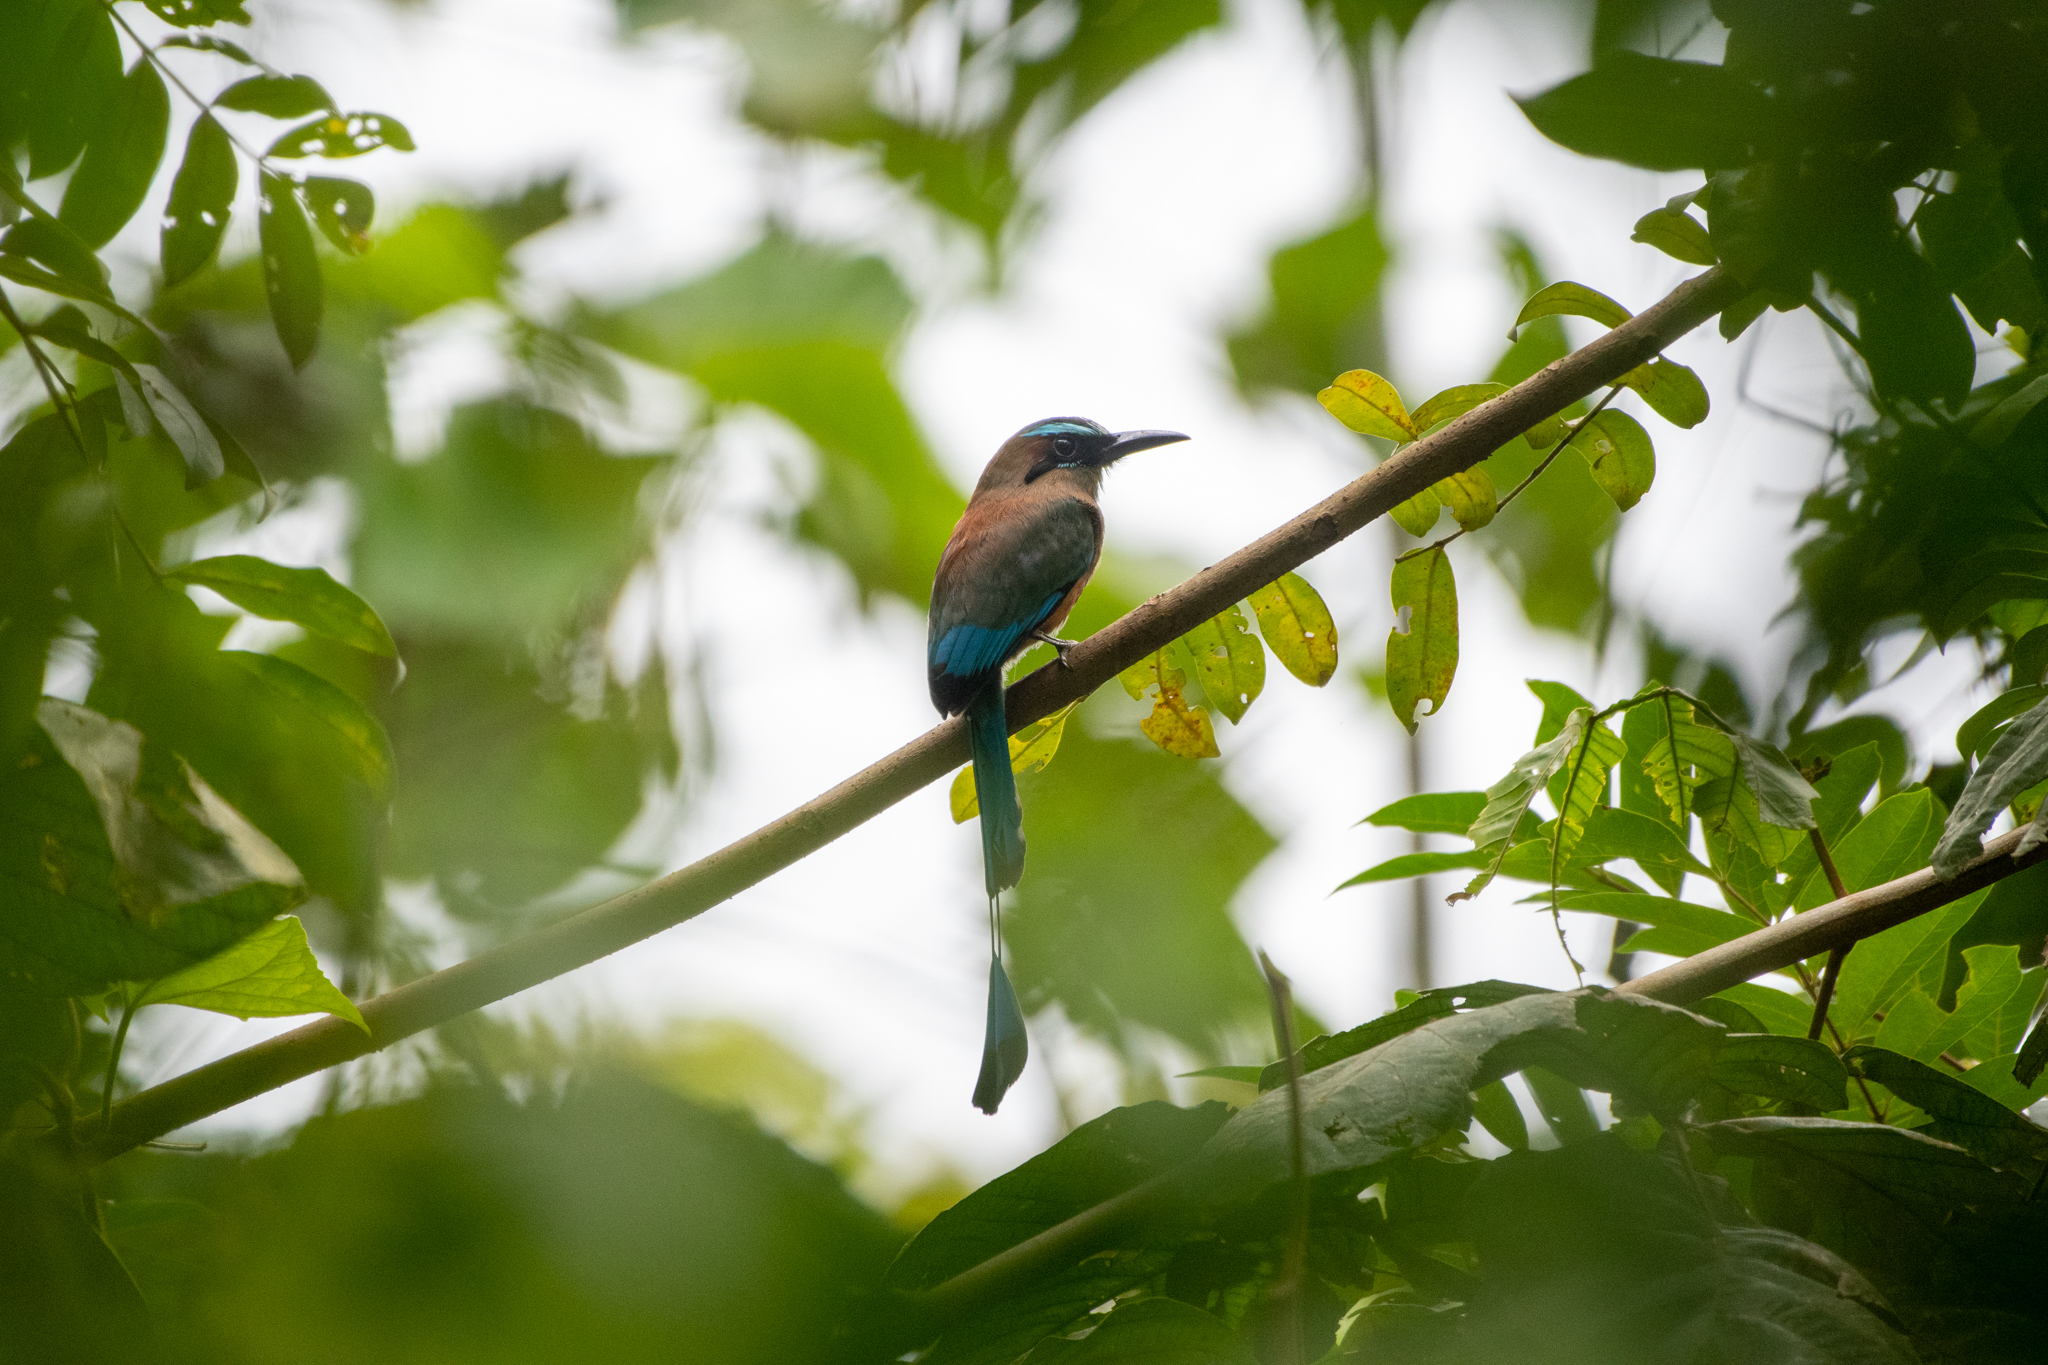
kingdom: Animalia
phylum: Chordata
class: Aves
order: Coraciiformes
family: Momotidae
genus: Eumomota
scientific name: Eumomota superciliosa
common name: Turquoise-browed motmot
